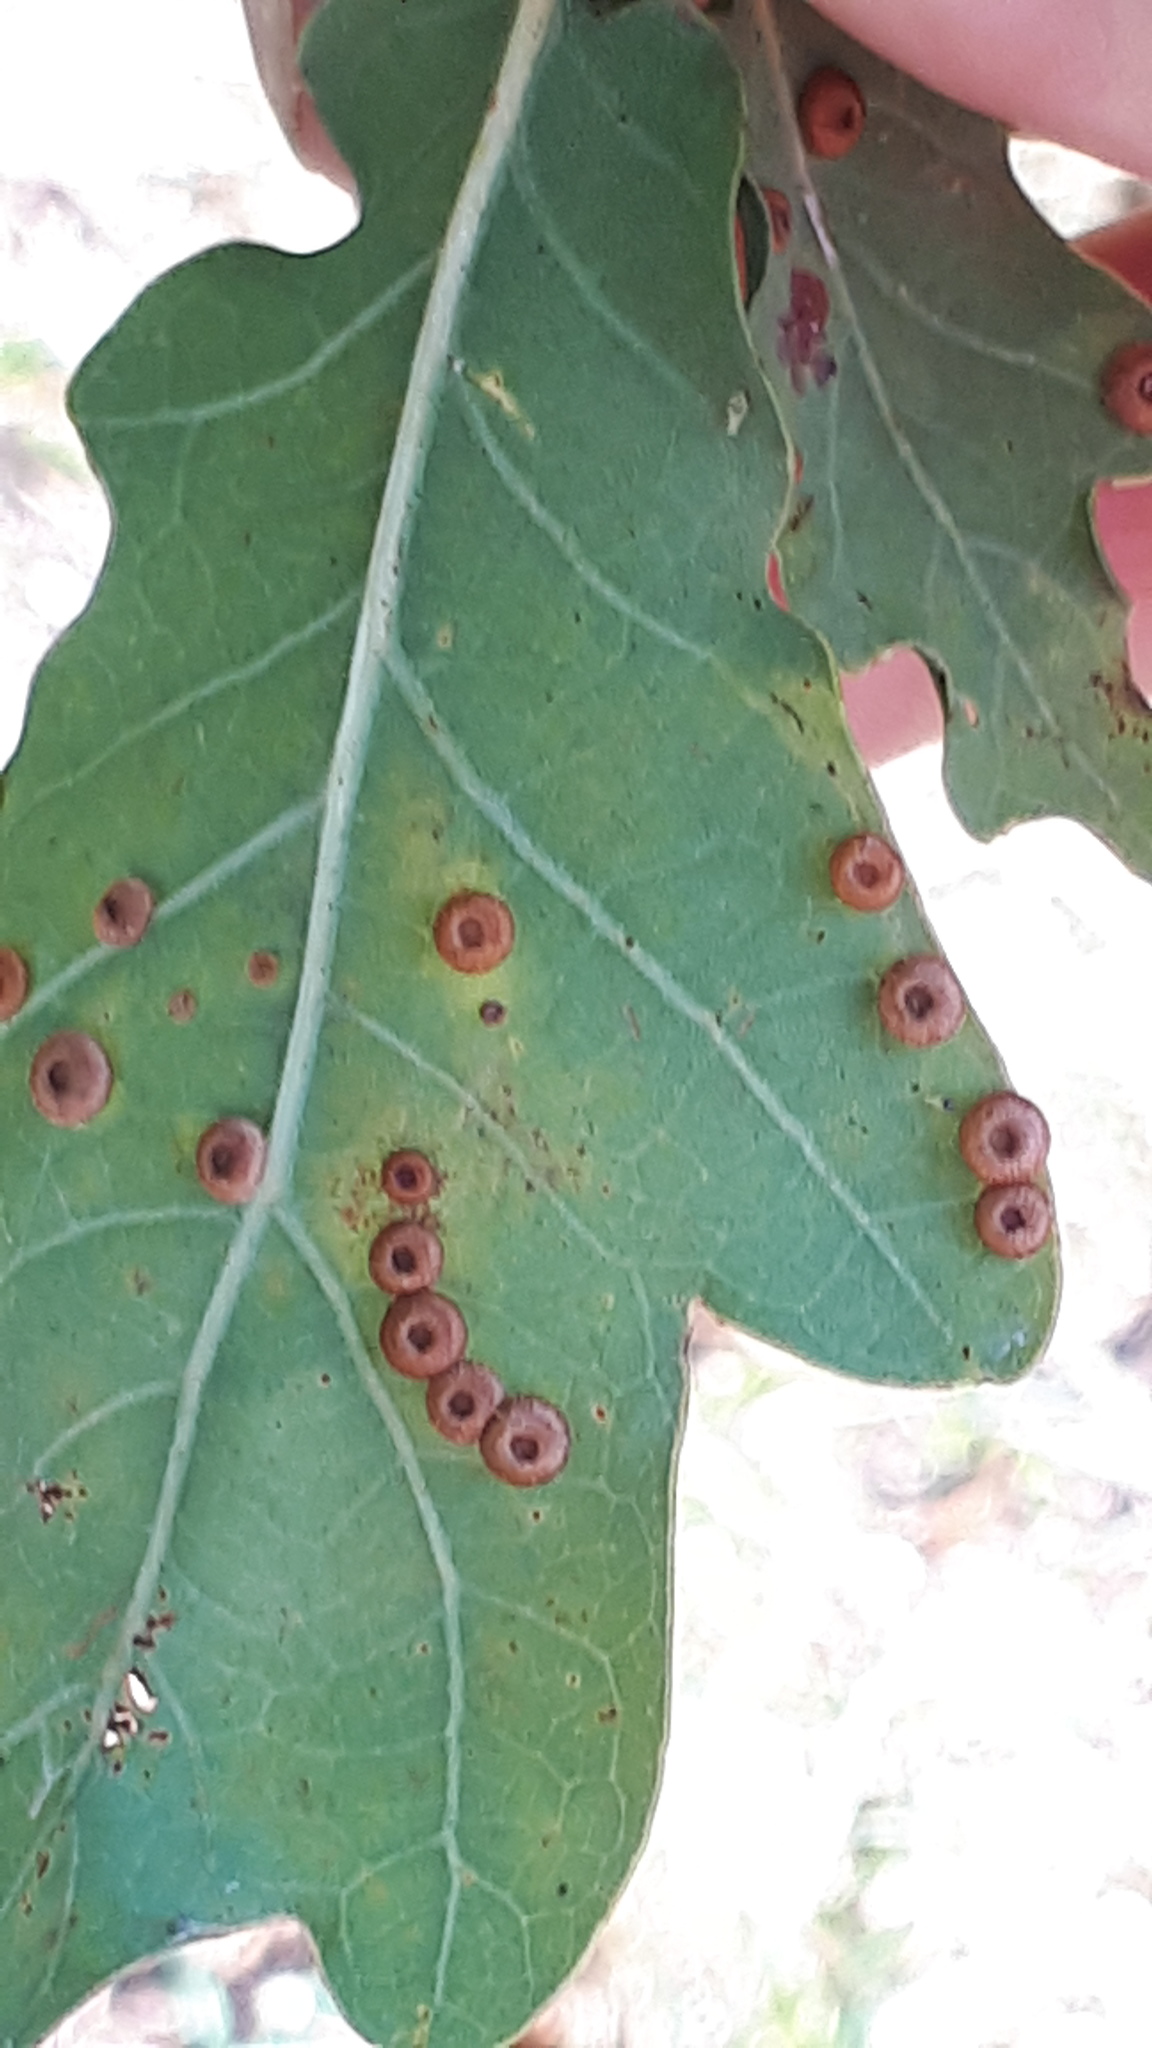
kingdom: Animalia
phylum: Arthropoda
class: Insecta
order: Hymenoptera
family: Cynipidae
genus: Neuroterus
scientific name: Neuroterus numismalis
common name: Silk-button spangle gall
